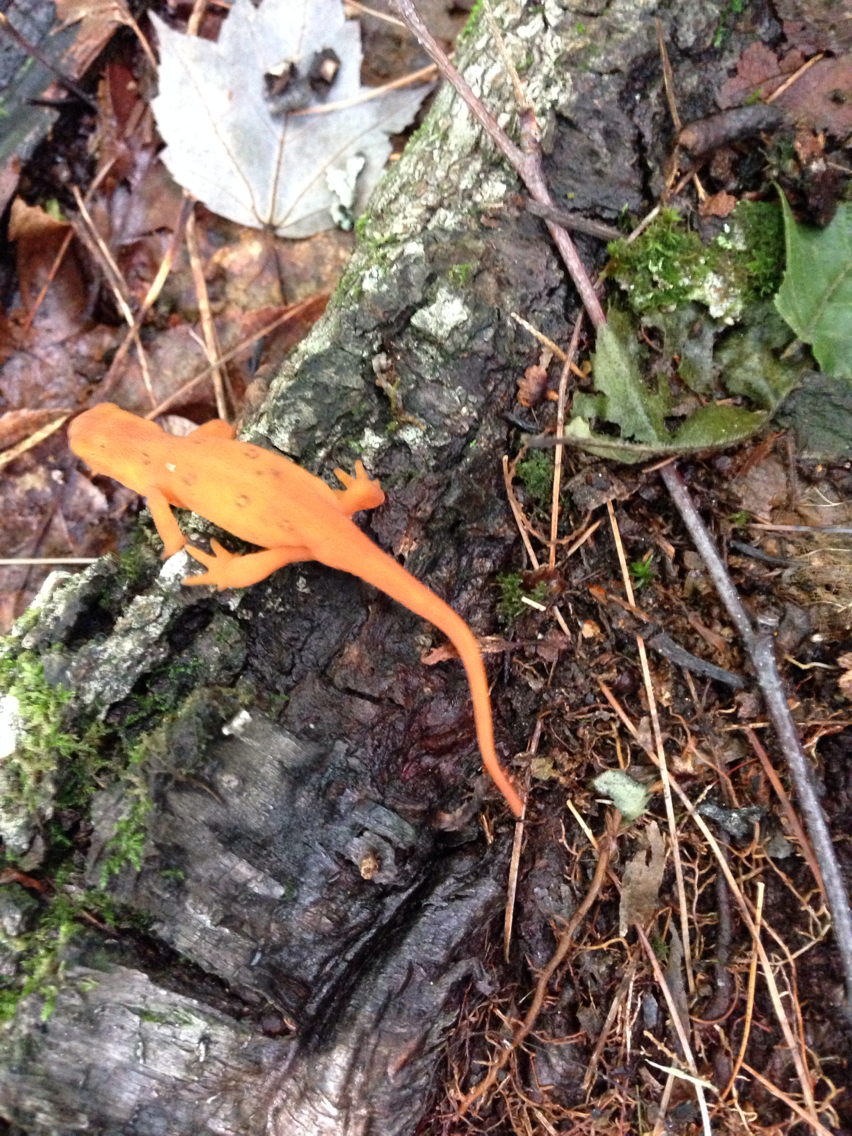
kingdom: Animalia
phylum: Chordata
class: Amphibia
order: Caudata
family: Salamandridae
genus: Notophthalmus
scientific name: Notophthalmus viridescens
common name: Eastern newt
